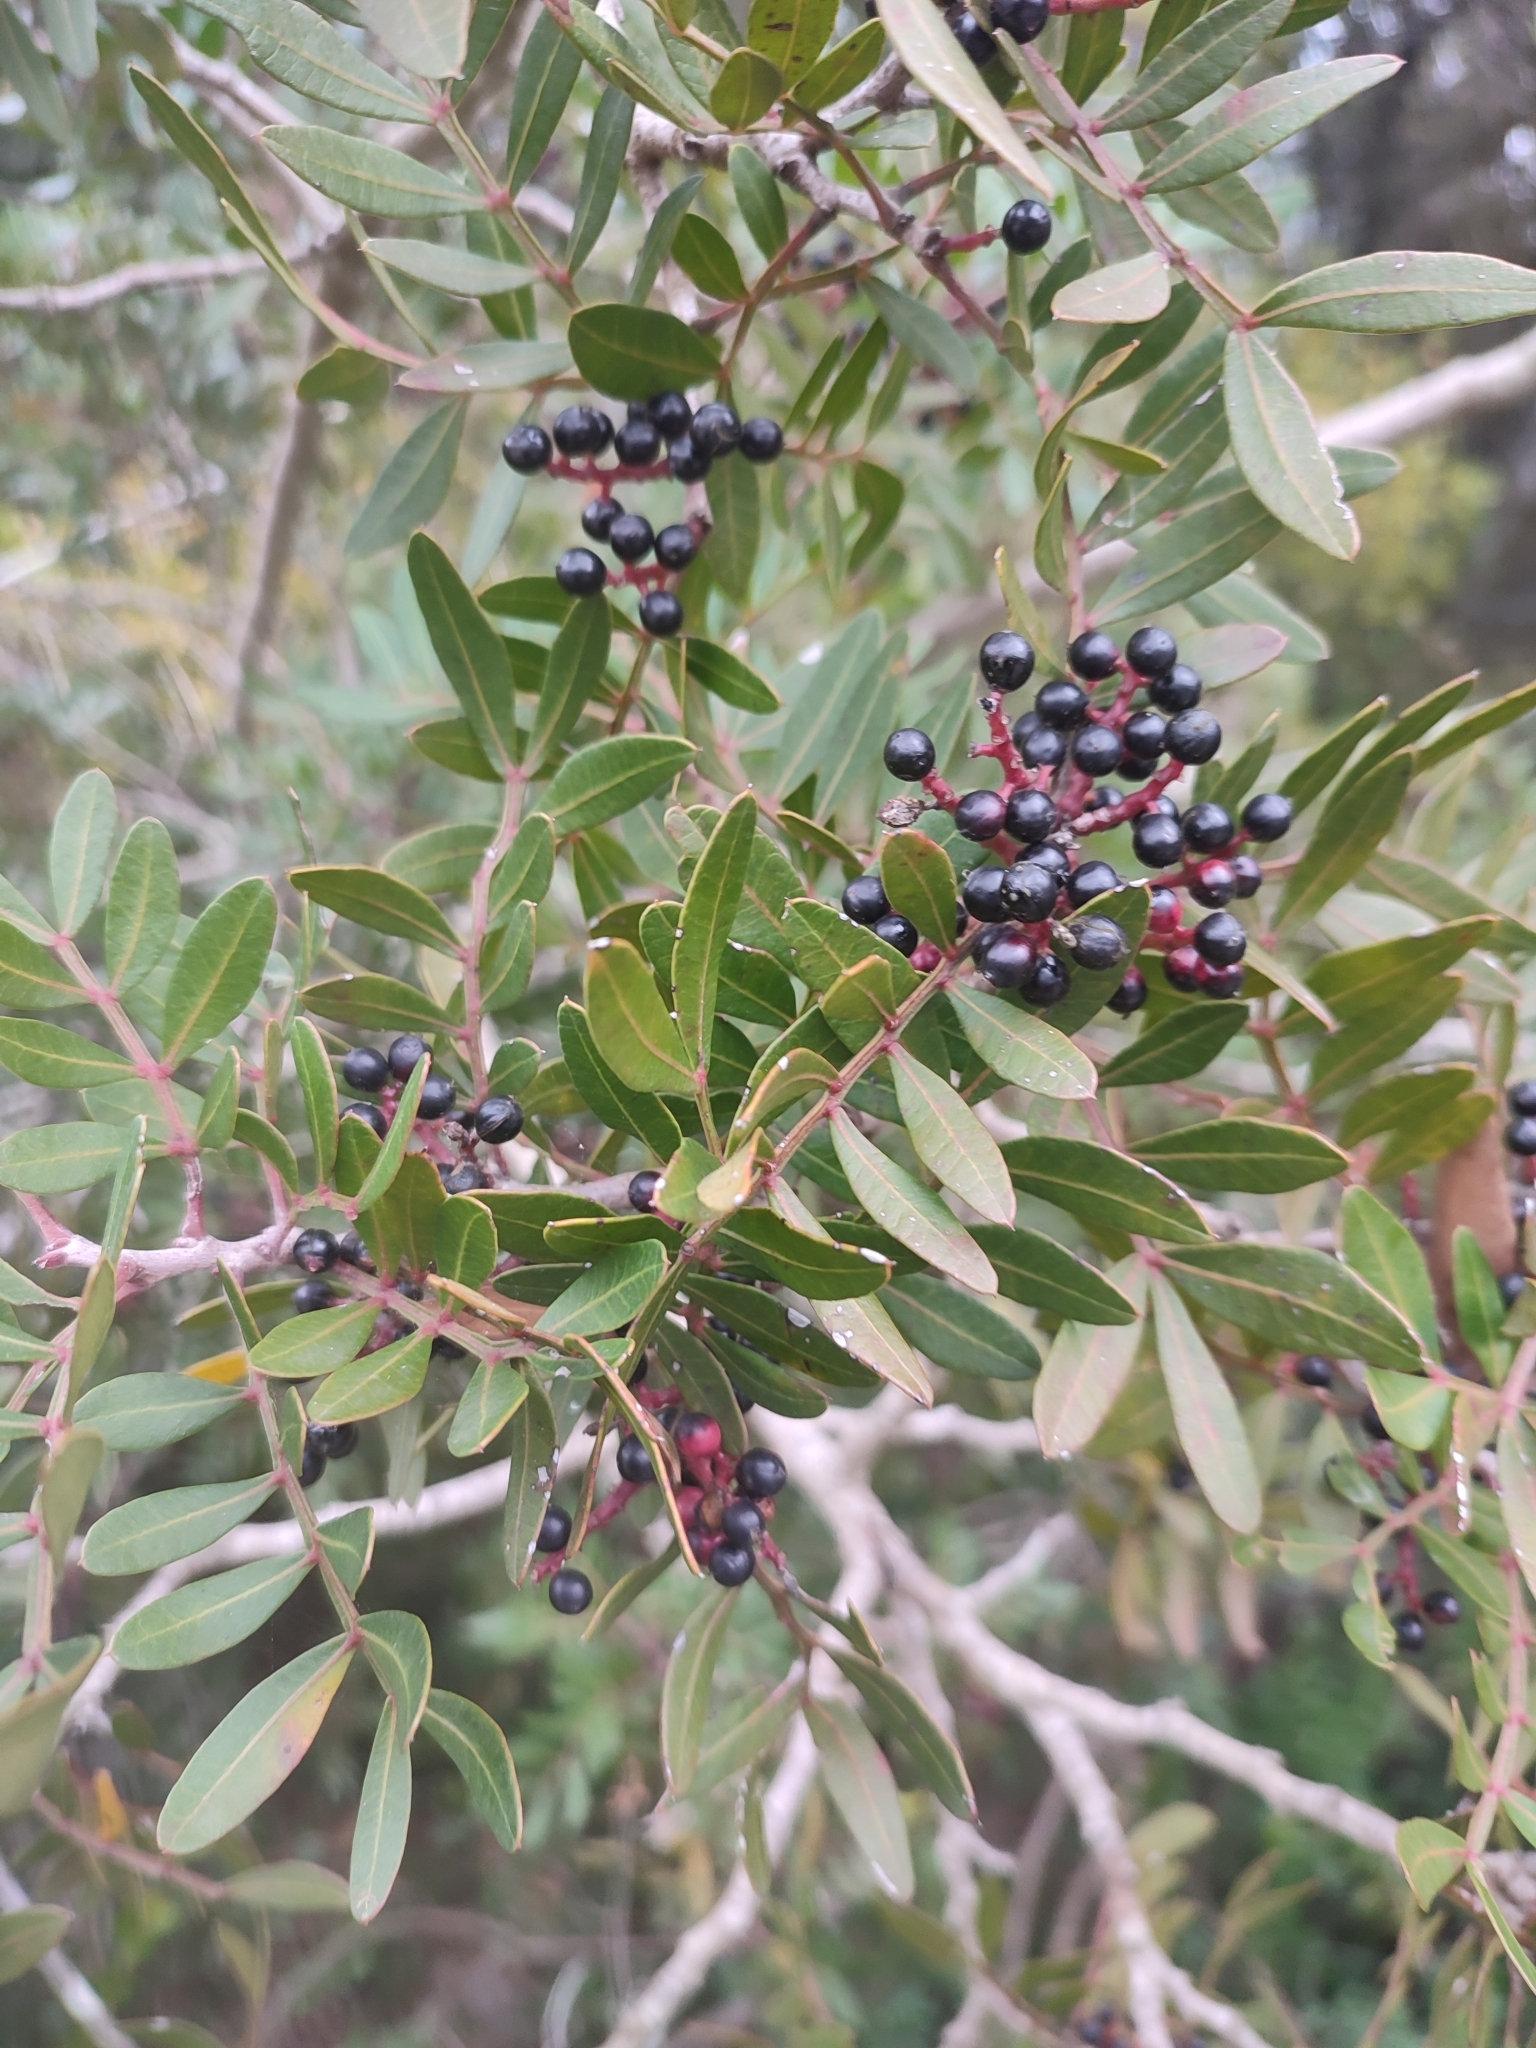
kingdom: Plantae
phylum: Tracheophyta
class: Magnoliopsida
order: Sapindales
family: Anacardiaceae
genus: Pistacia
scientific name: Pistacia lentiscus
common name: Lentisk
